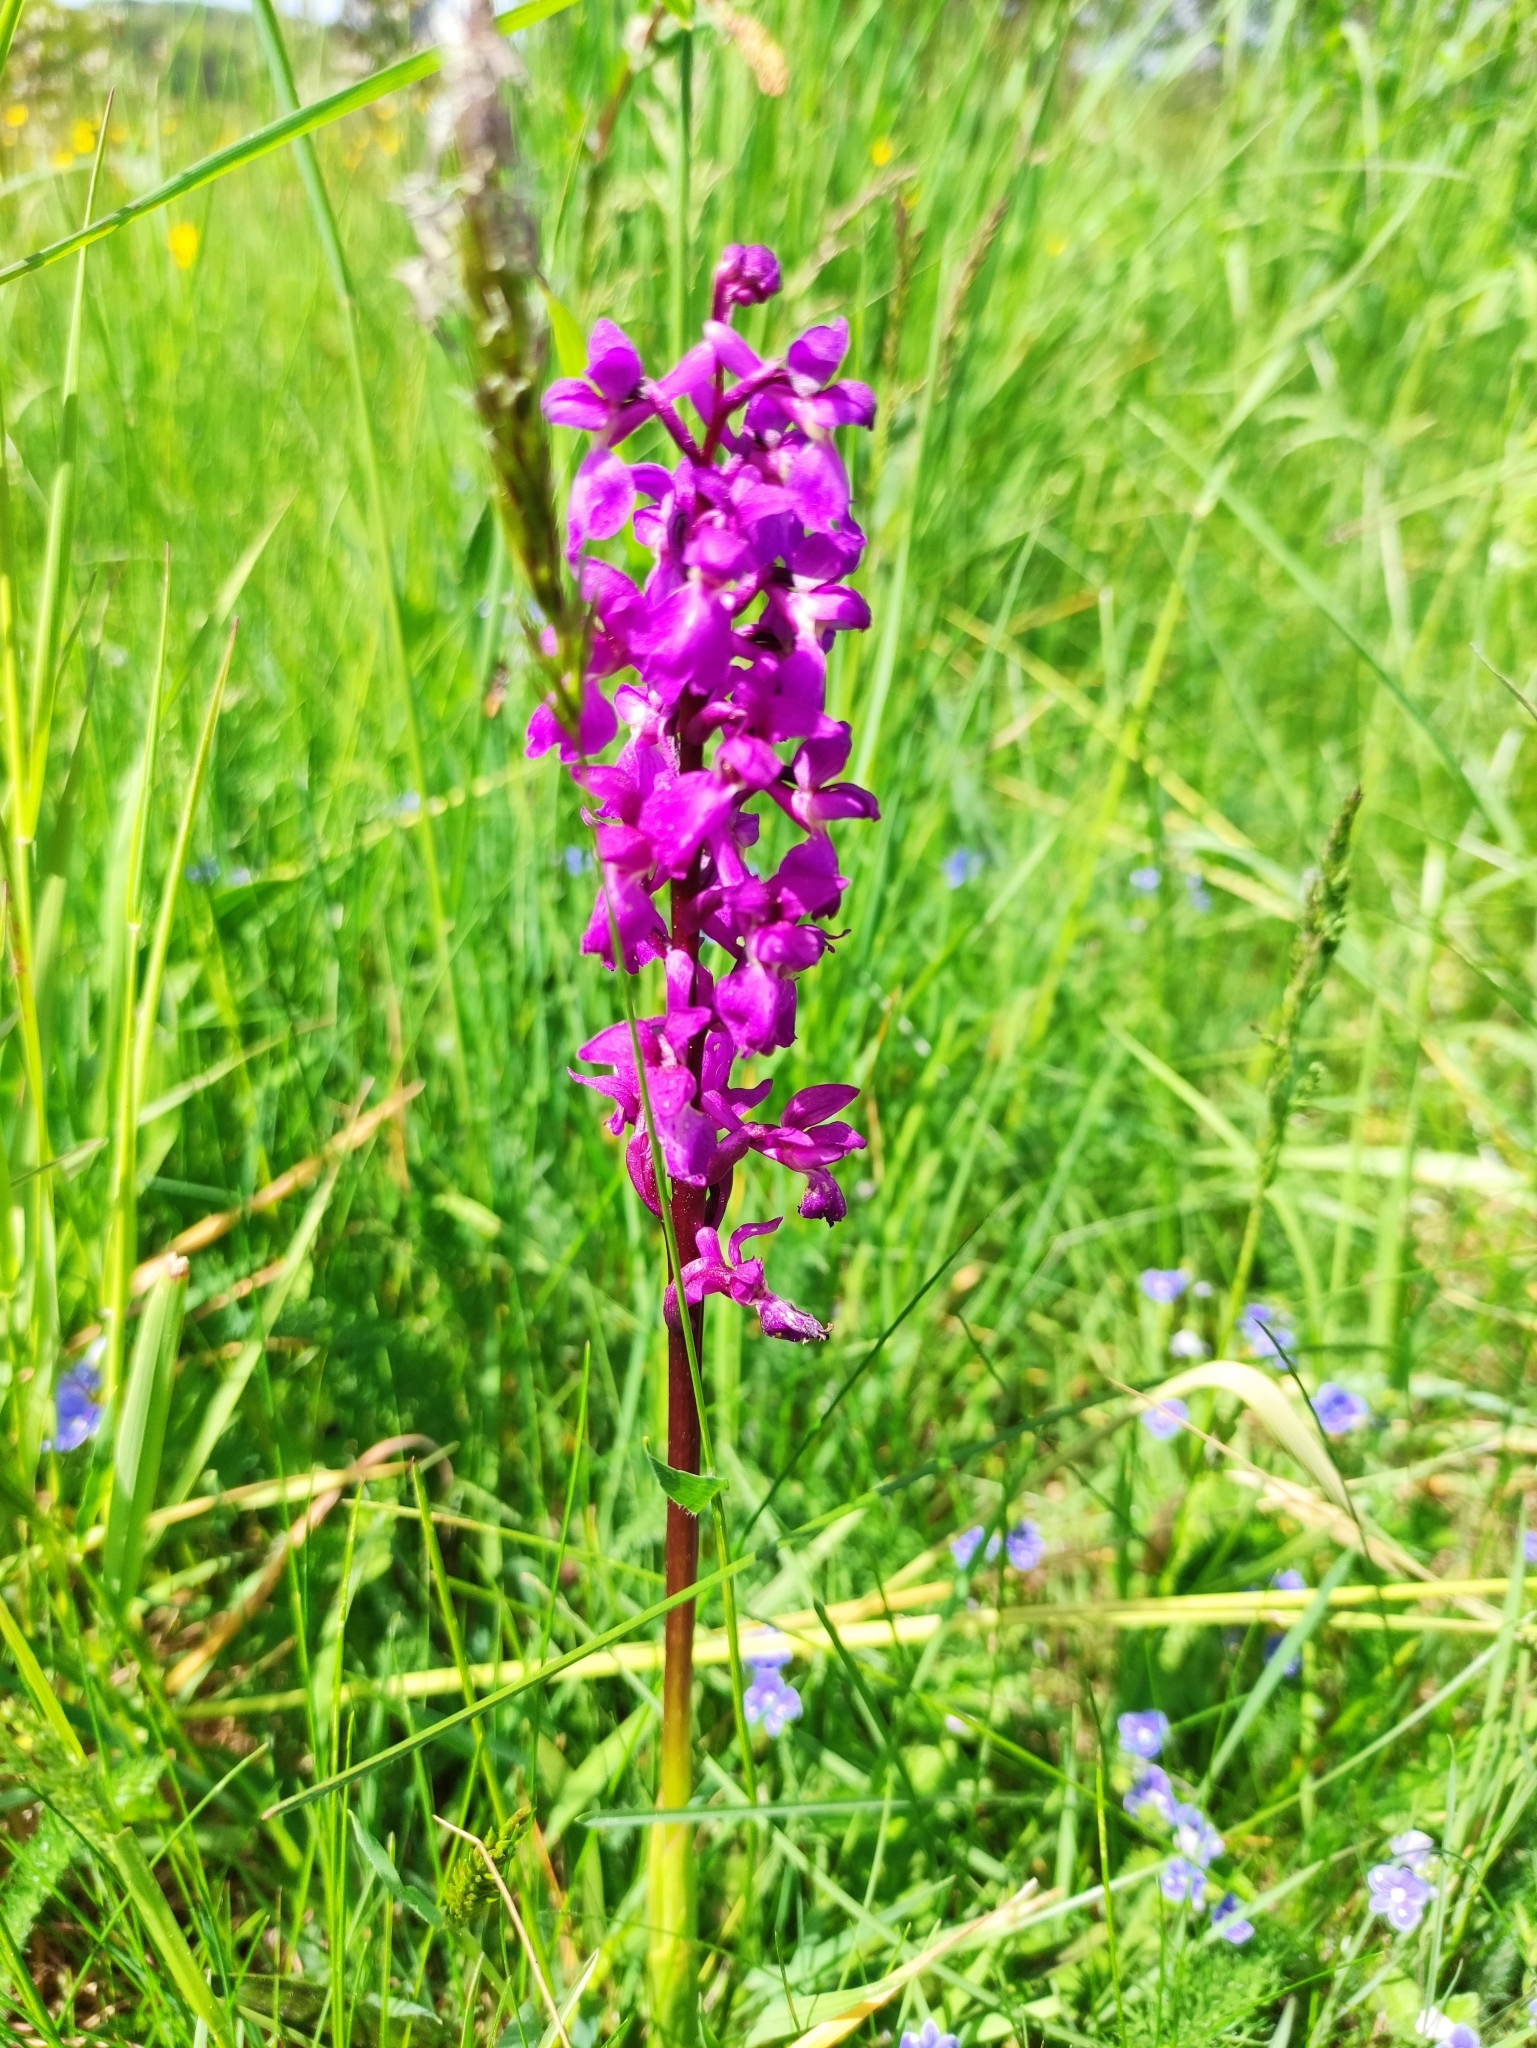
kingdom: Plantae
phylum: Tracheophyta
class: Liliopsida
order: Asparagales
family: Orchidaceae
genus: Orchis
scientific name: Orchis mascula
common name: Early-purple orchid
